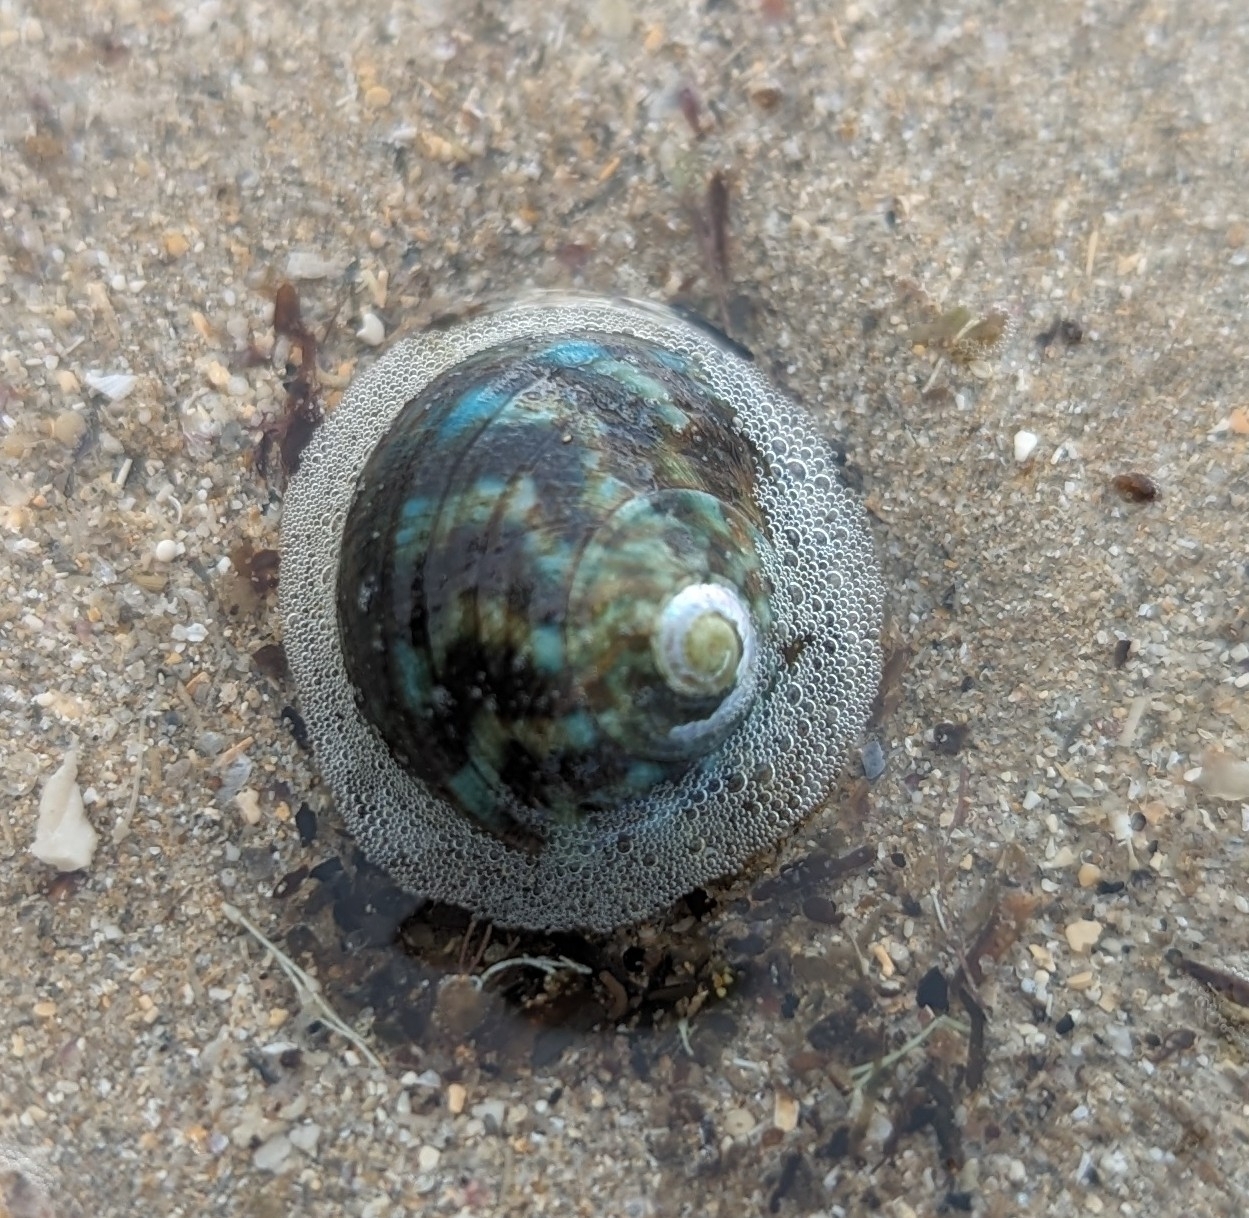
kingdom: Animalia
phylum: Mollusca
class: Gastropoda
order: Trochida
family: Turbinidae
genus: Lunella
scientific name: Lunella undulata
